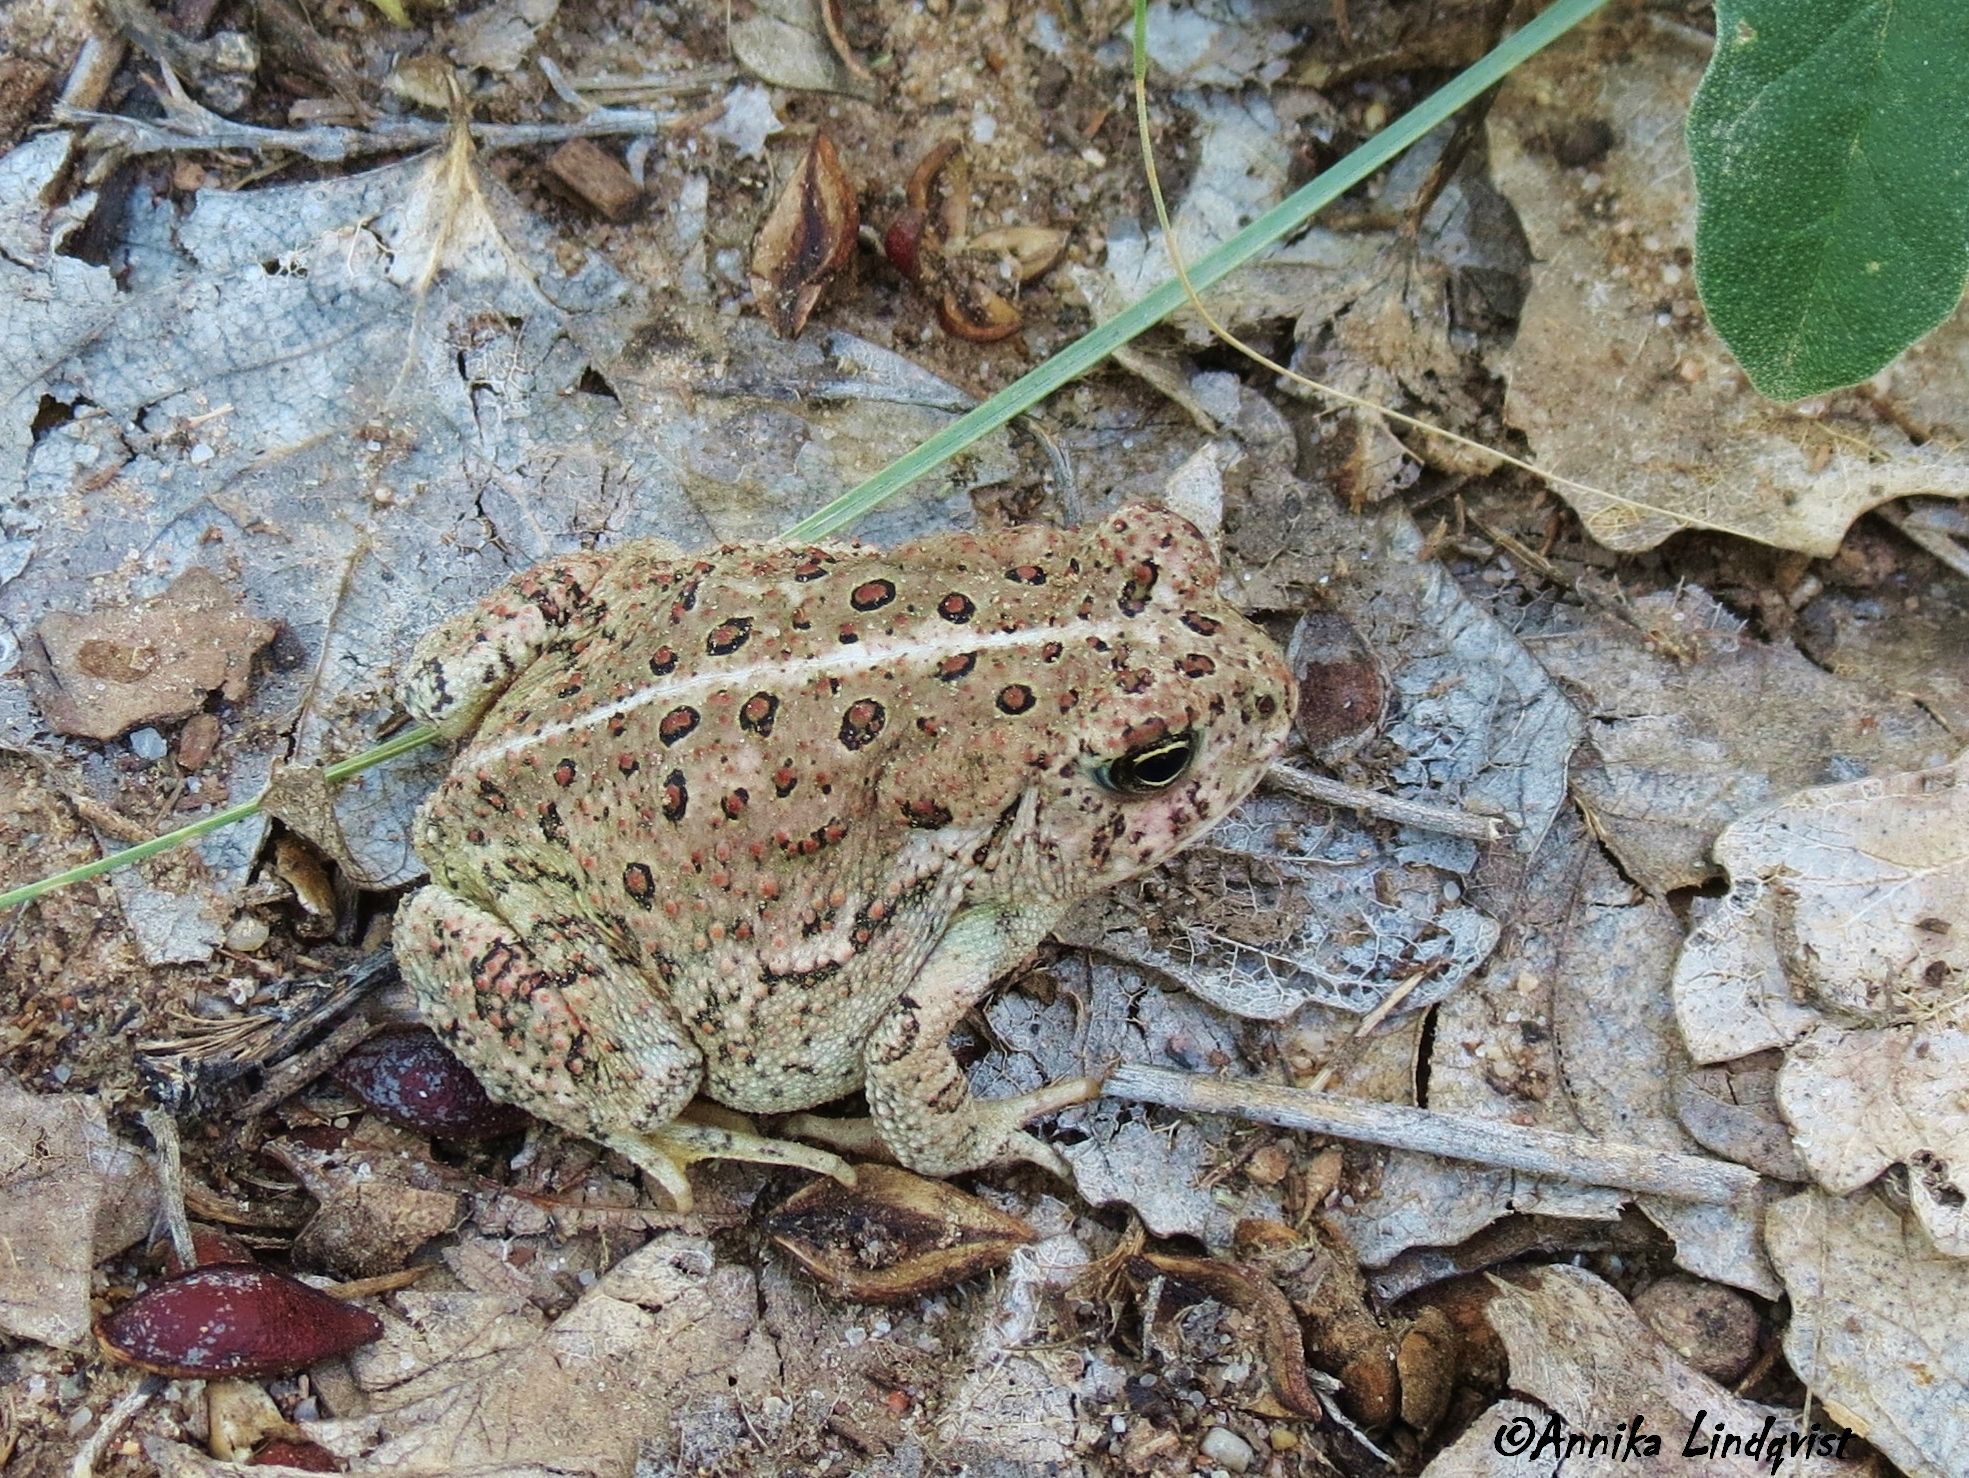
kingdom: Animalia
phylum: Chordata
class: Amphibia
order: Anura
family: Bufonidae
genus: Anaxyrus
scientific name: Anaxyrus woodhousii
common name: Woodhouse's toad
